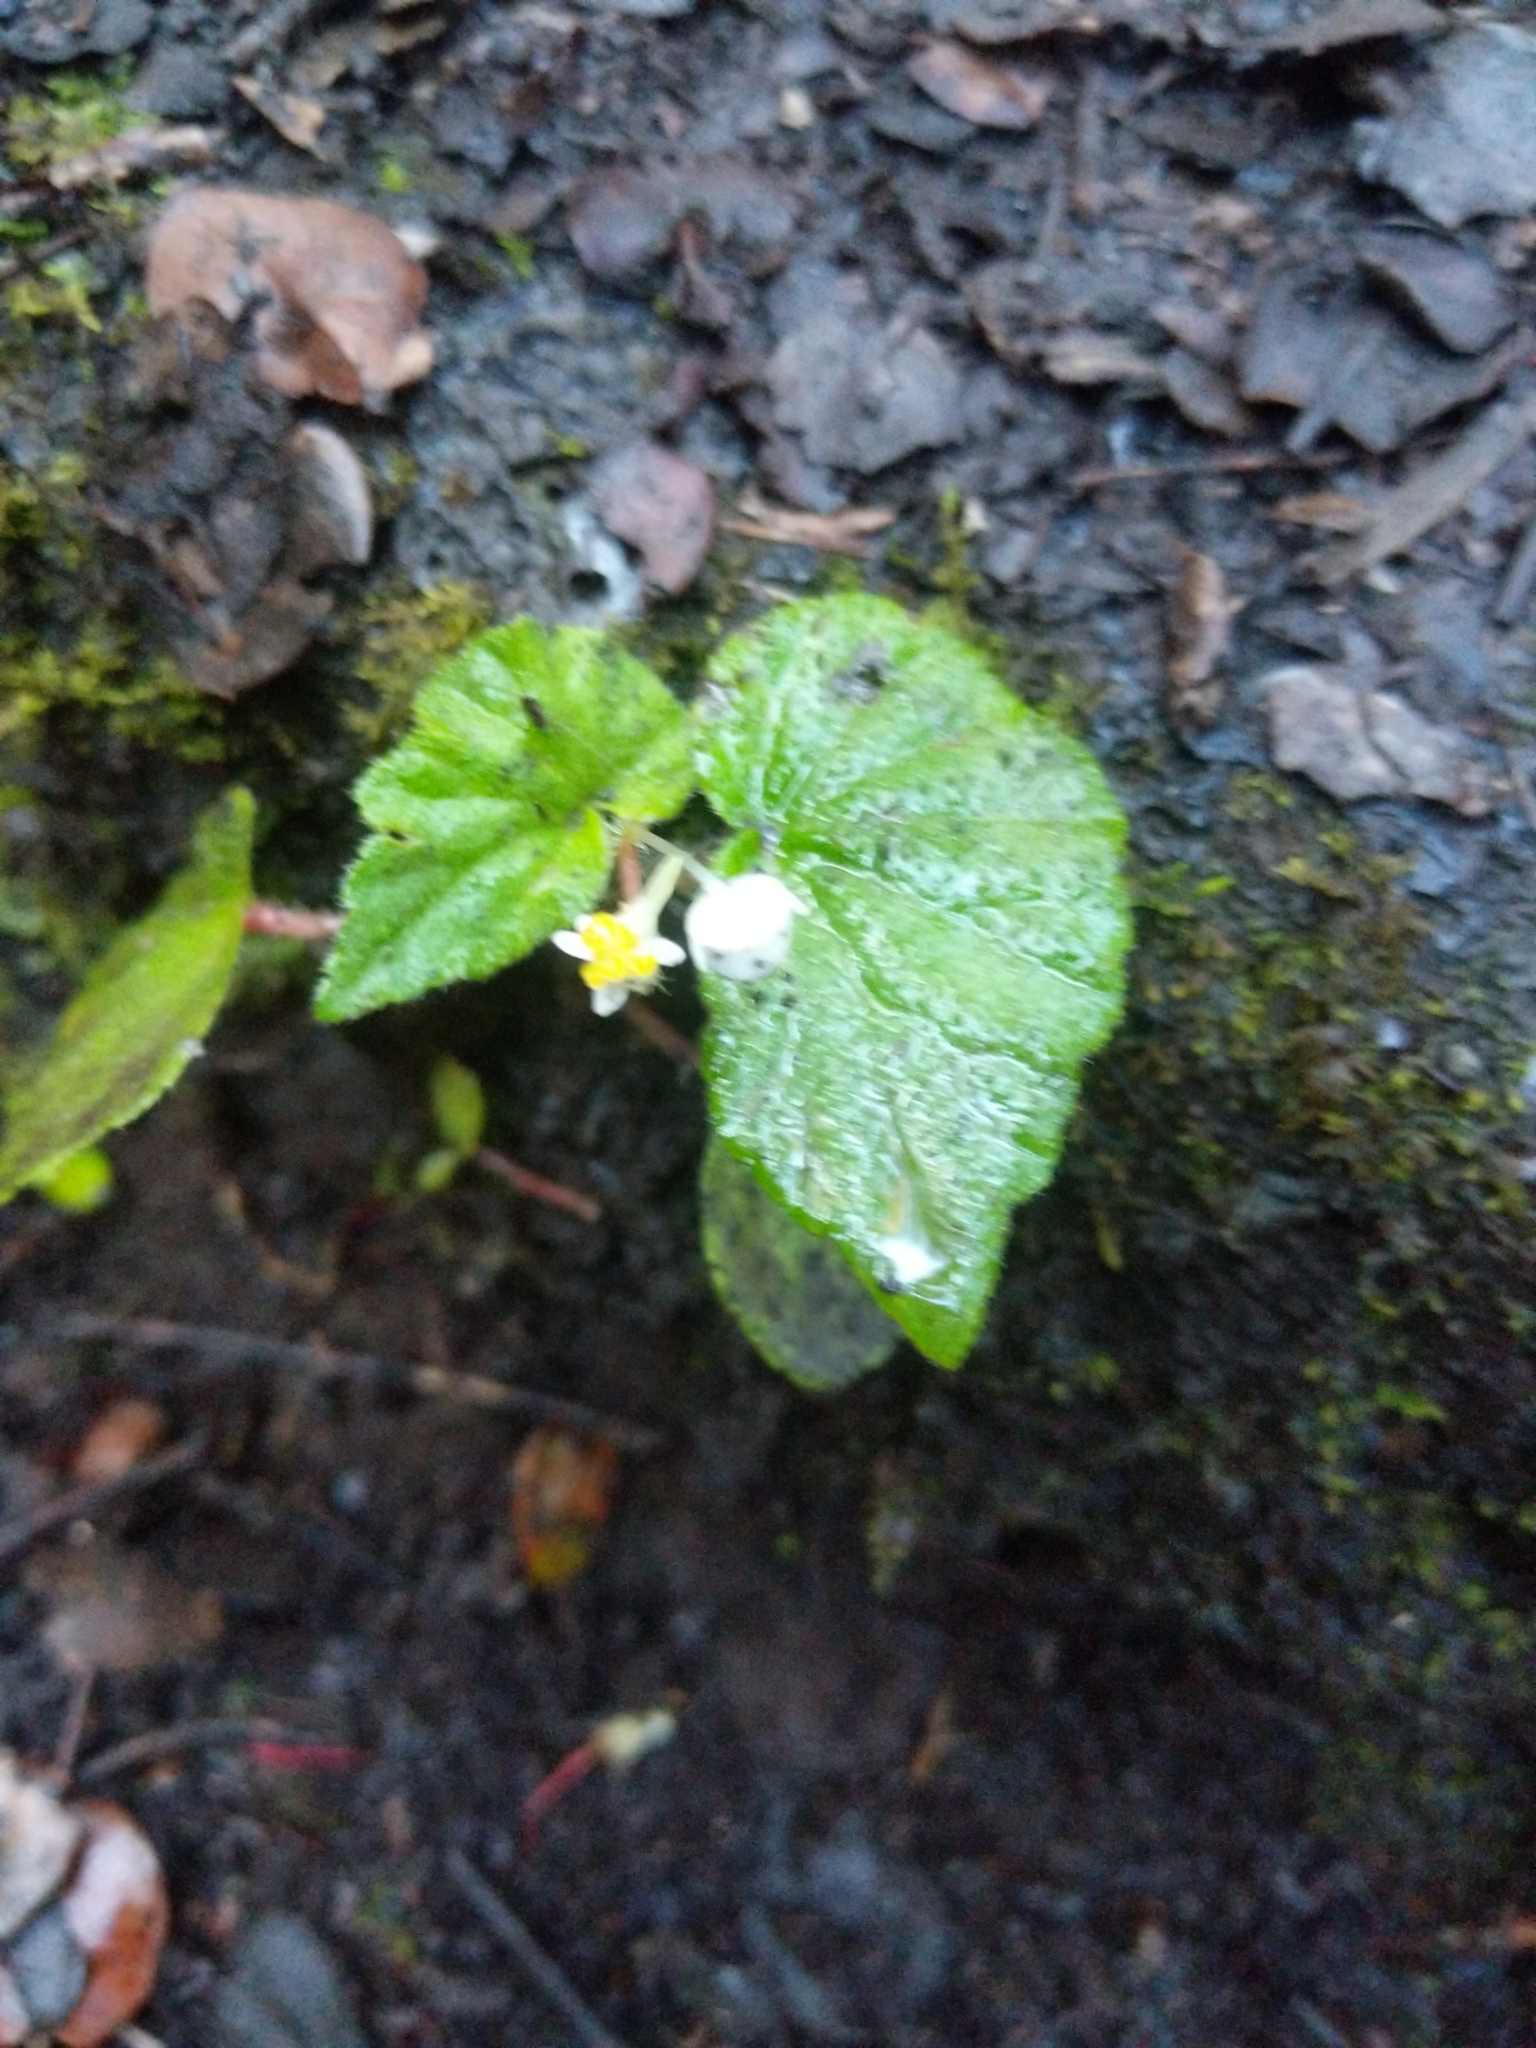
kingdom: Plantae
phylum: Tracheophyta
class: Magnoliopsida
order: Cucurbitales
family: Begoniaceae
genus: Begonia
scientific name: Begonia hirtella
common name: Brazilian begonia
